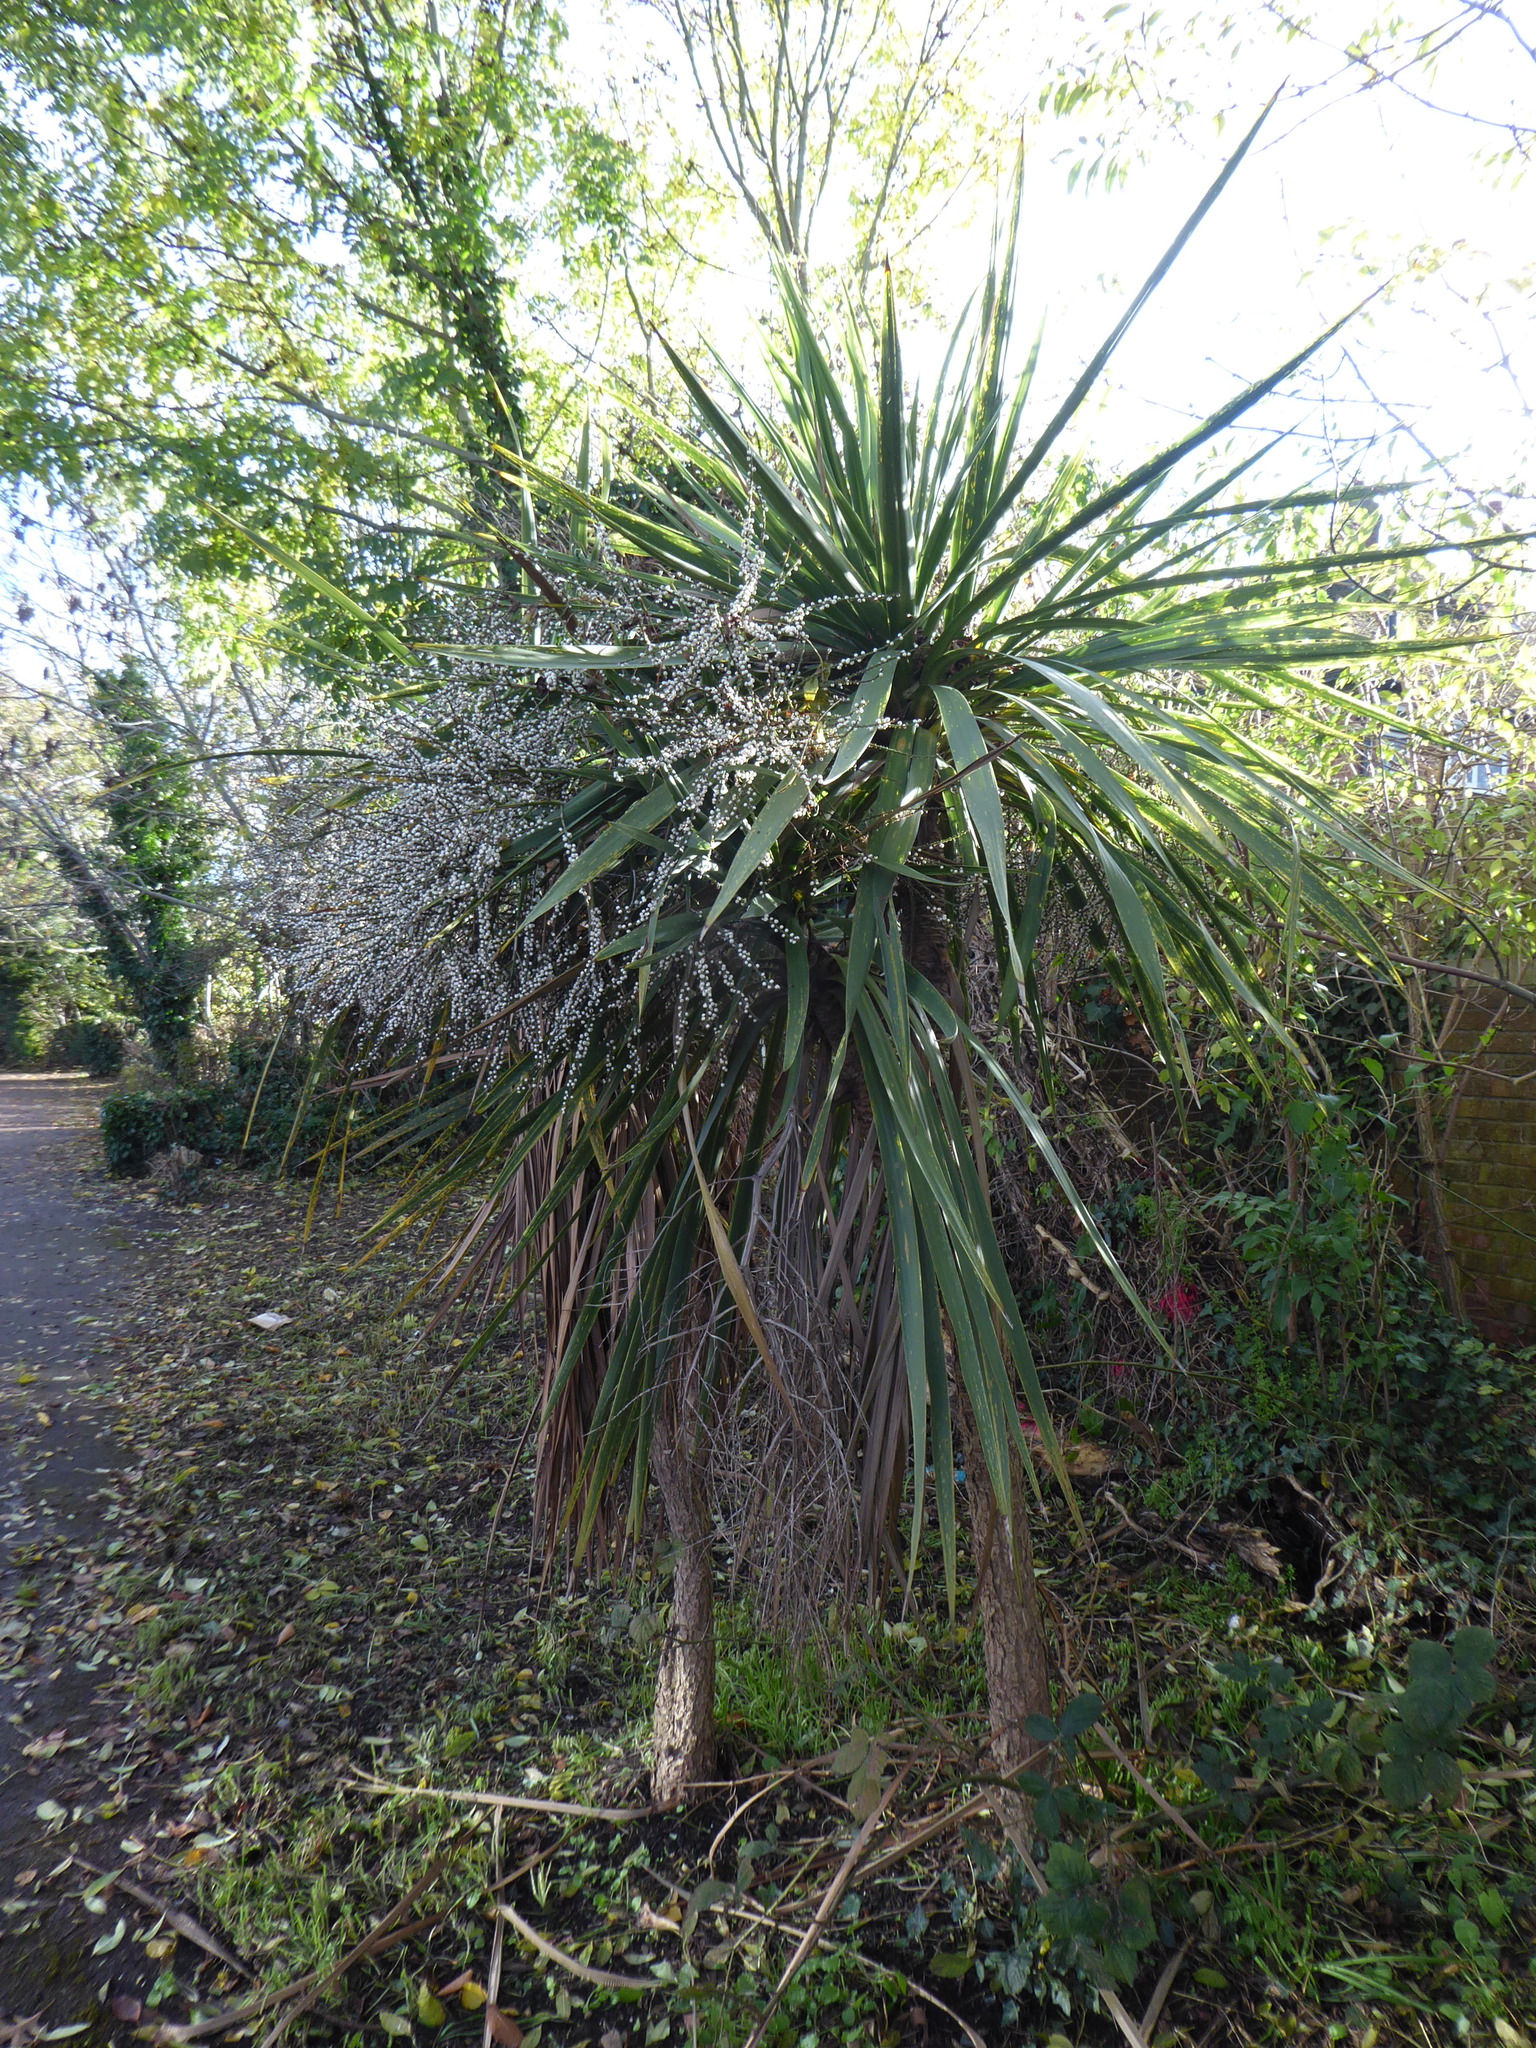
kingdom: Plantae
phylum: Tracheophyta
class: Liliopsida
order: Asparagales
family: Asparagaceae
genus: Cordyline
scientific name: Cordyline australis
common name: Cabbage-palm
